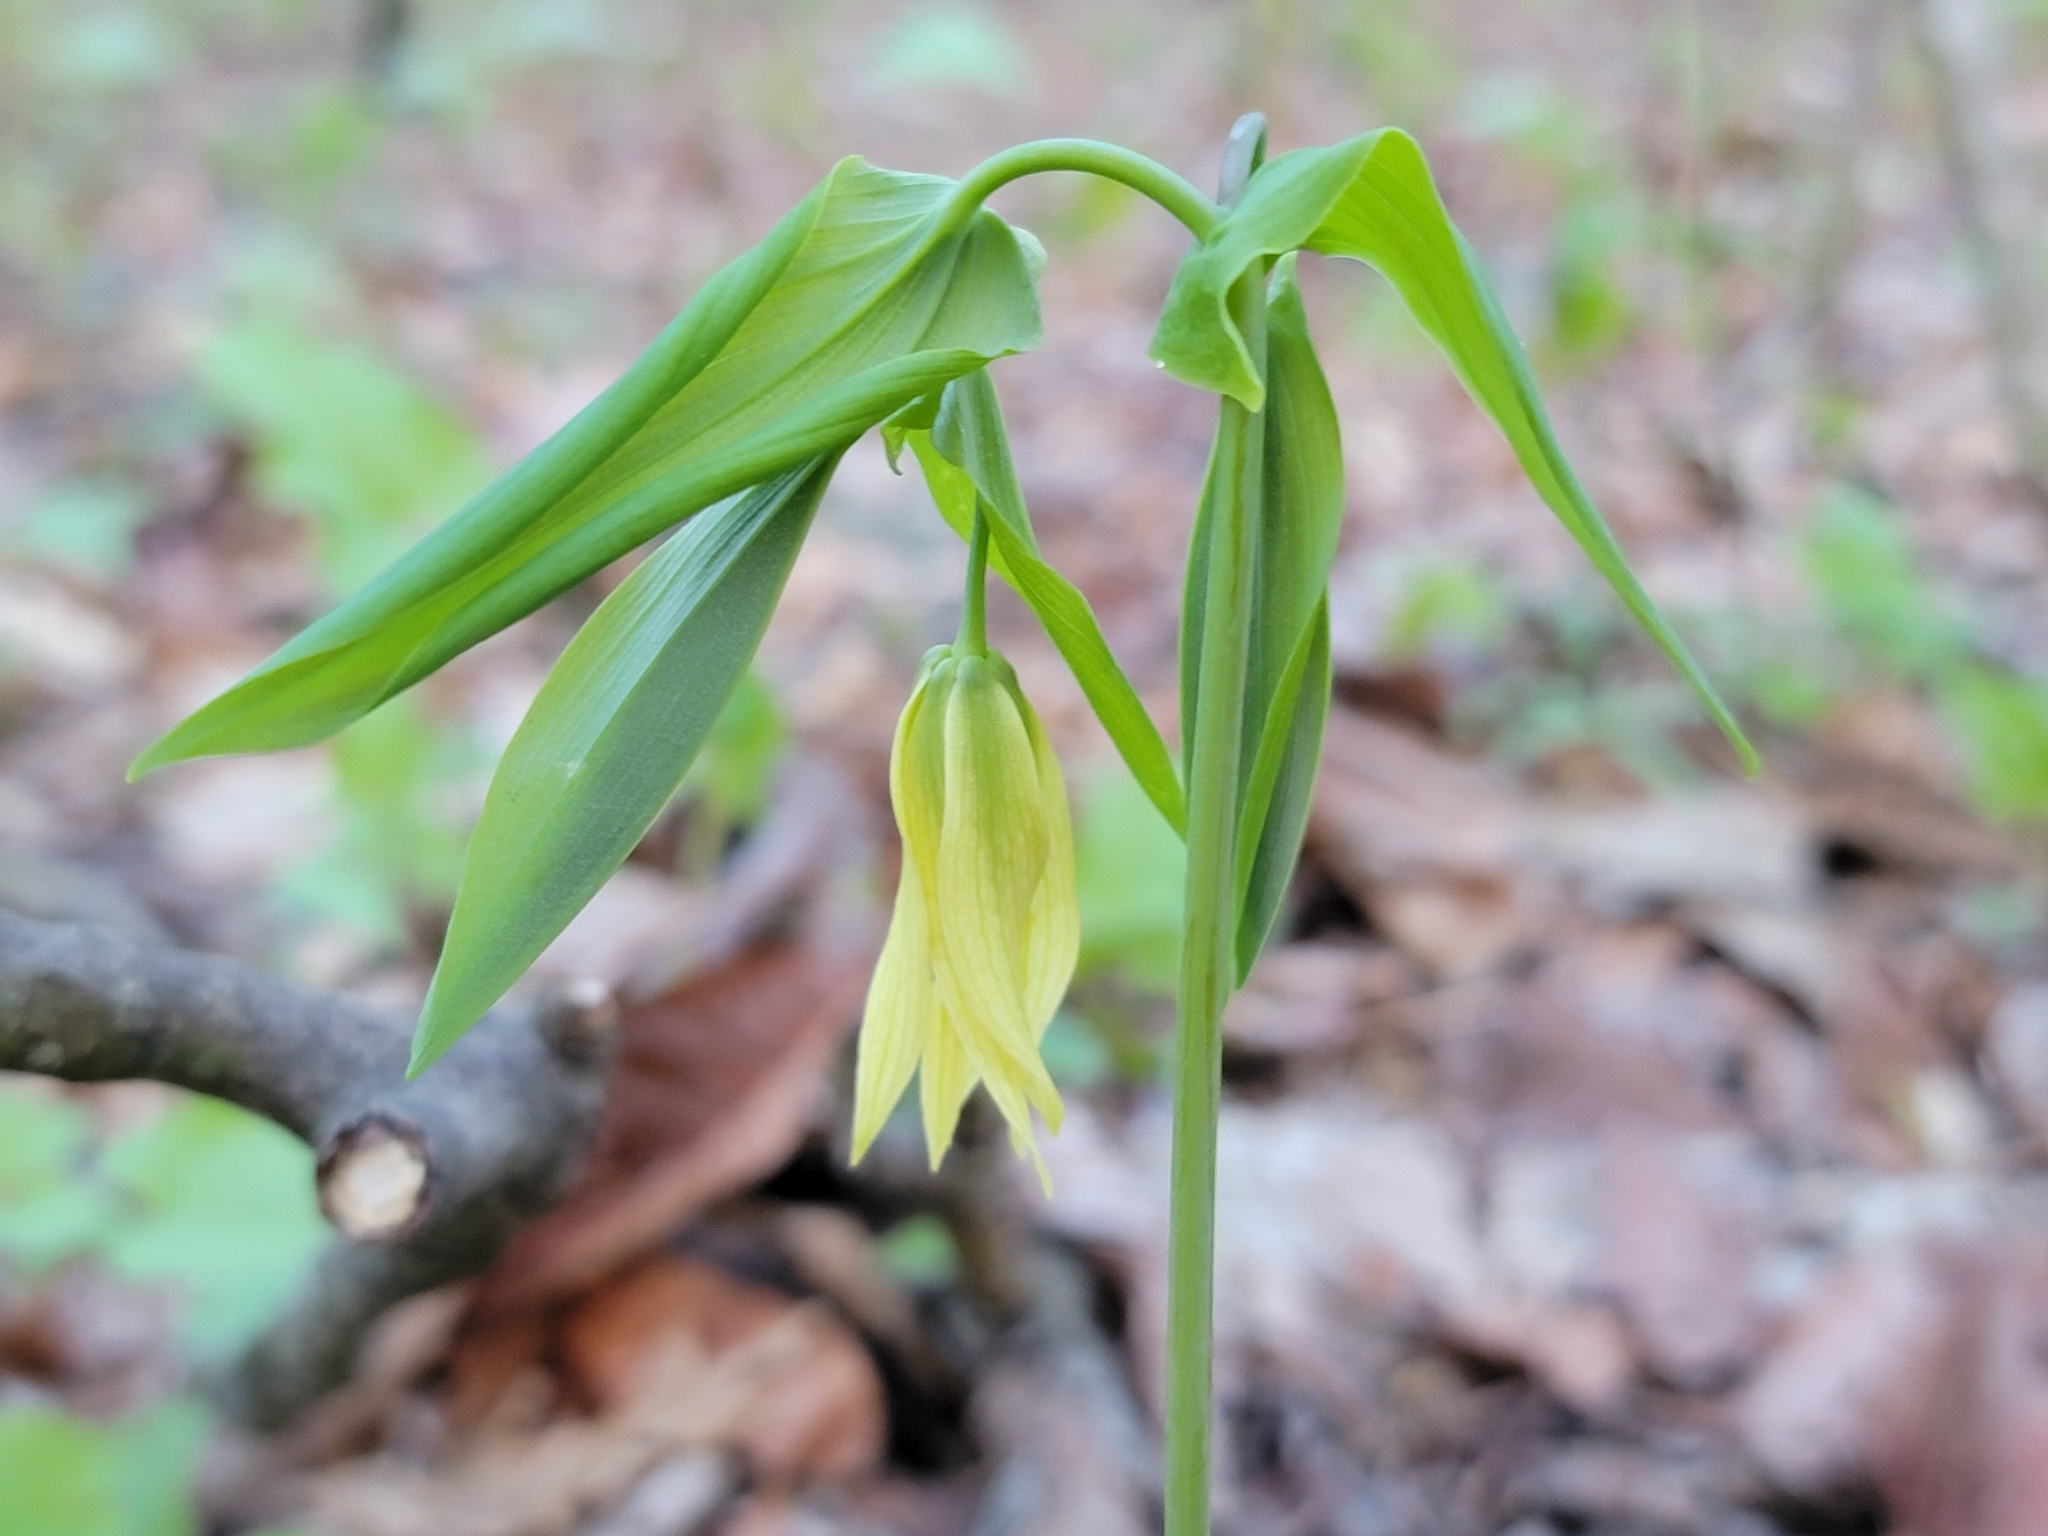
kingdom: Plantae
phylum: Tracheophyta
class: Liliopsida
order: Liliales
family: Colchicaceae
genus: Uvularia
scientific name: Uvularia grandiflora
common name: Bellwort
